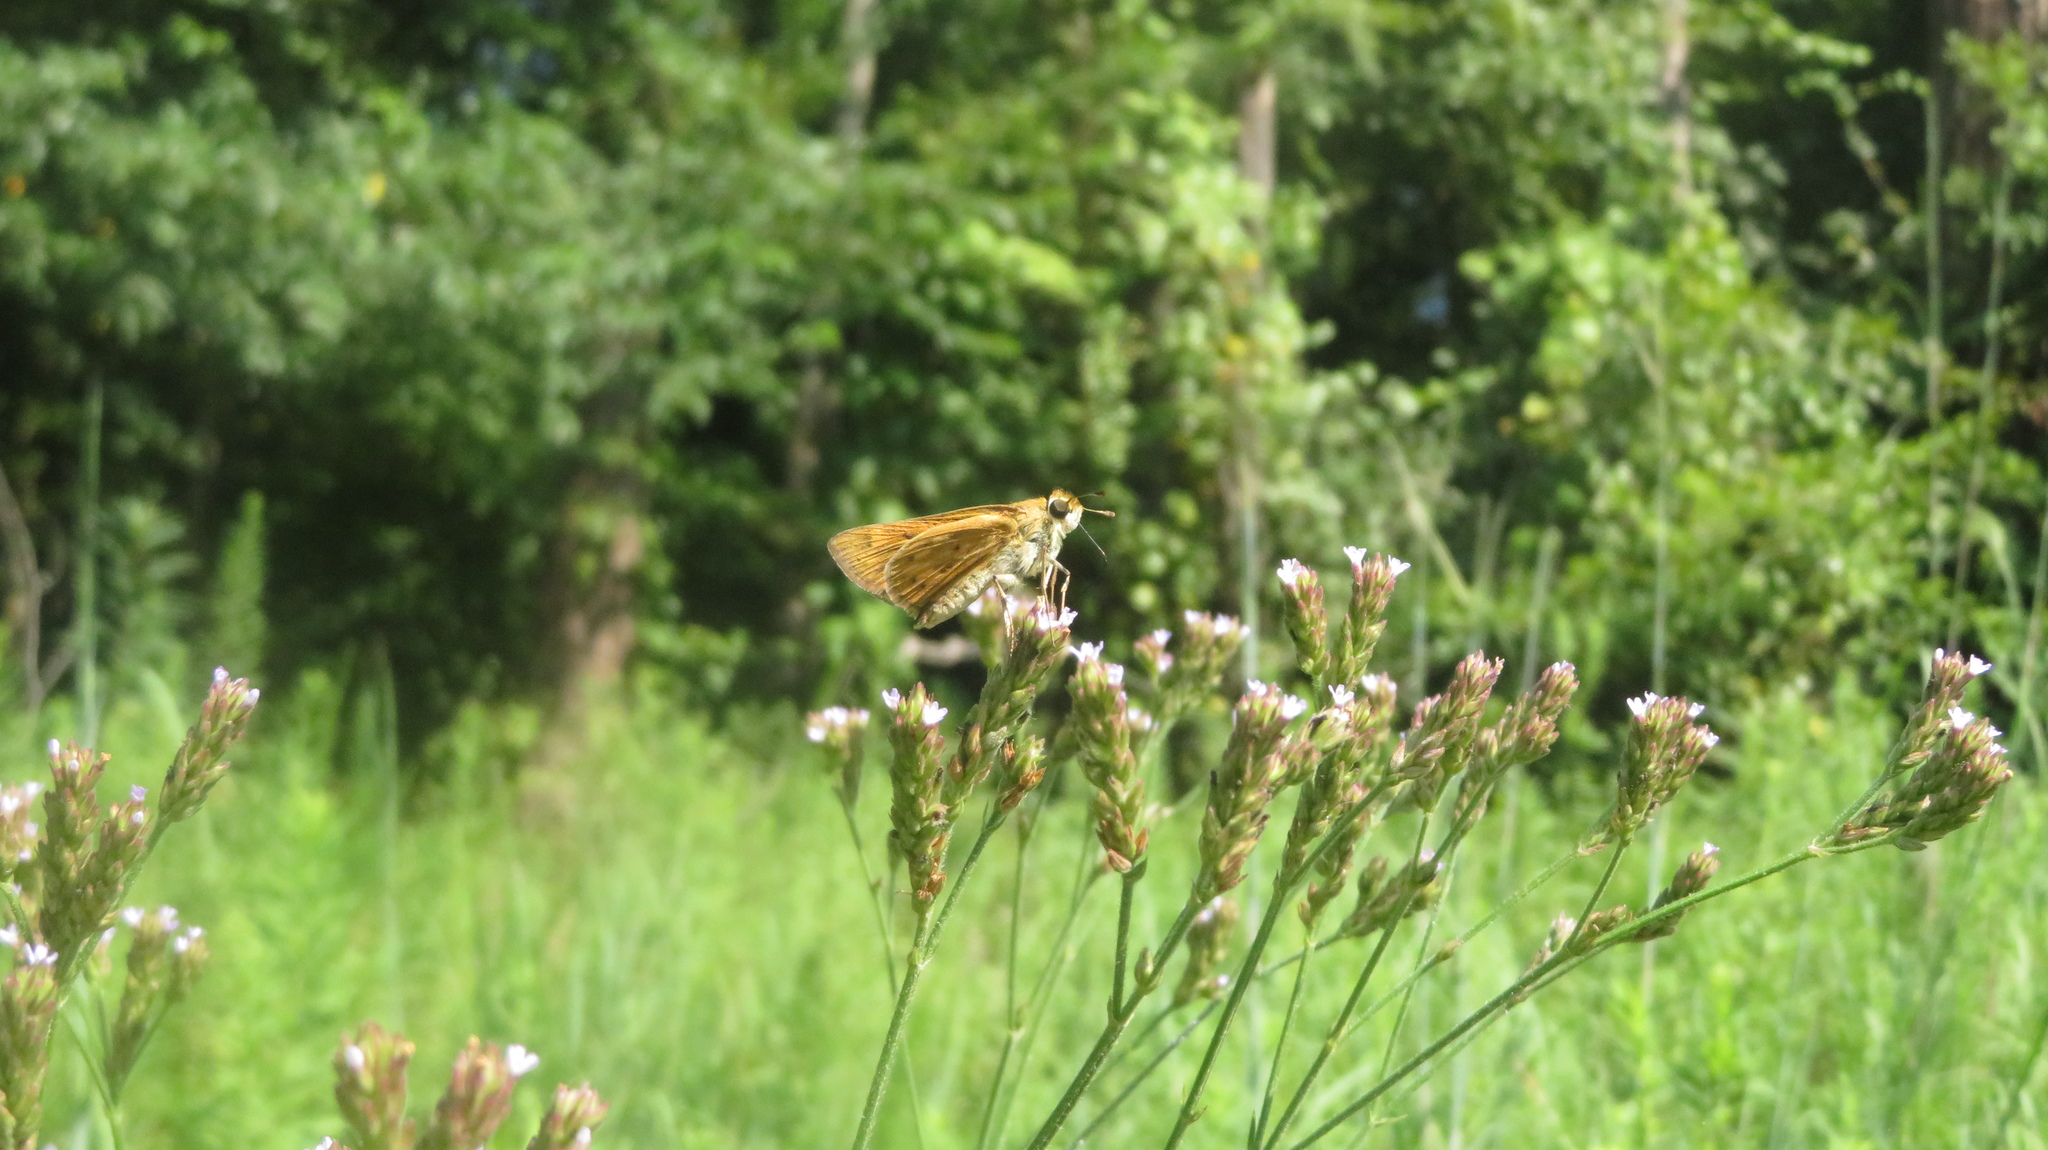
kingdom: Animalia
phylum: Arthropoda
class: Insecta
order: Lepidoptera
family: Hesperiidae
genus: Hylephila
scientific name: Hylephila phyleus
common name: Fiery skipper
